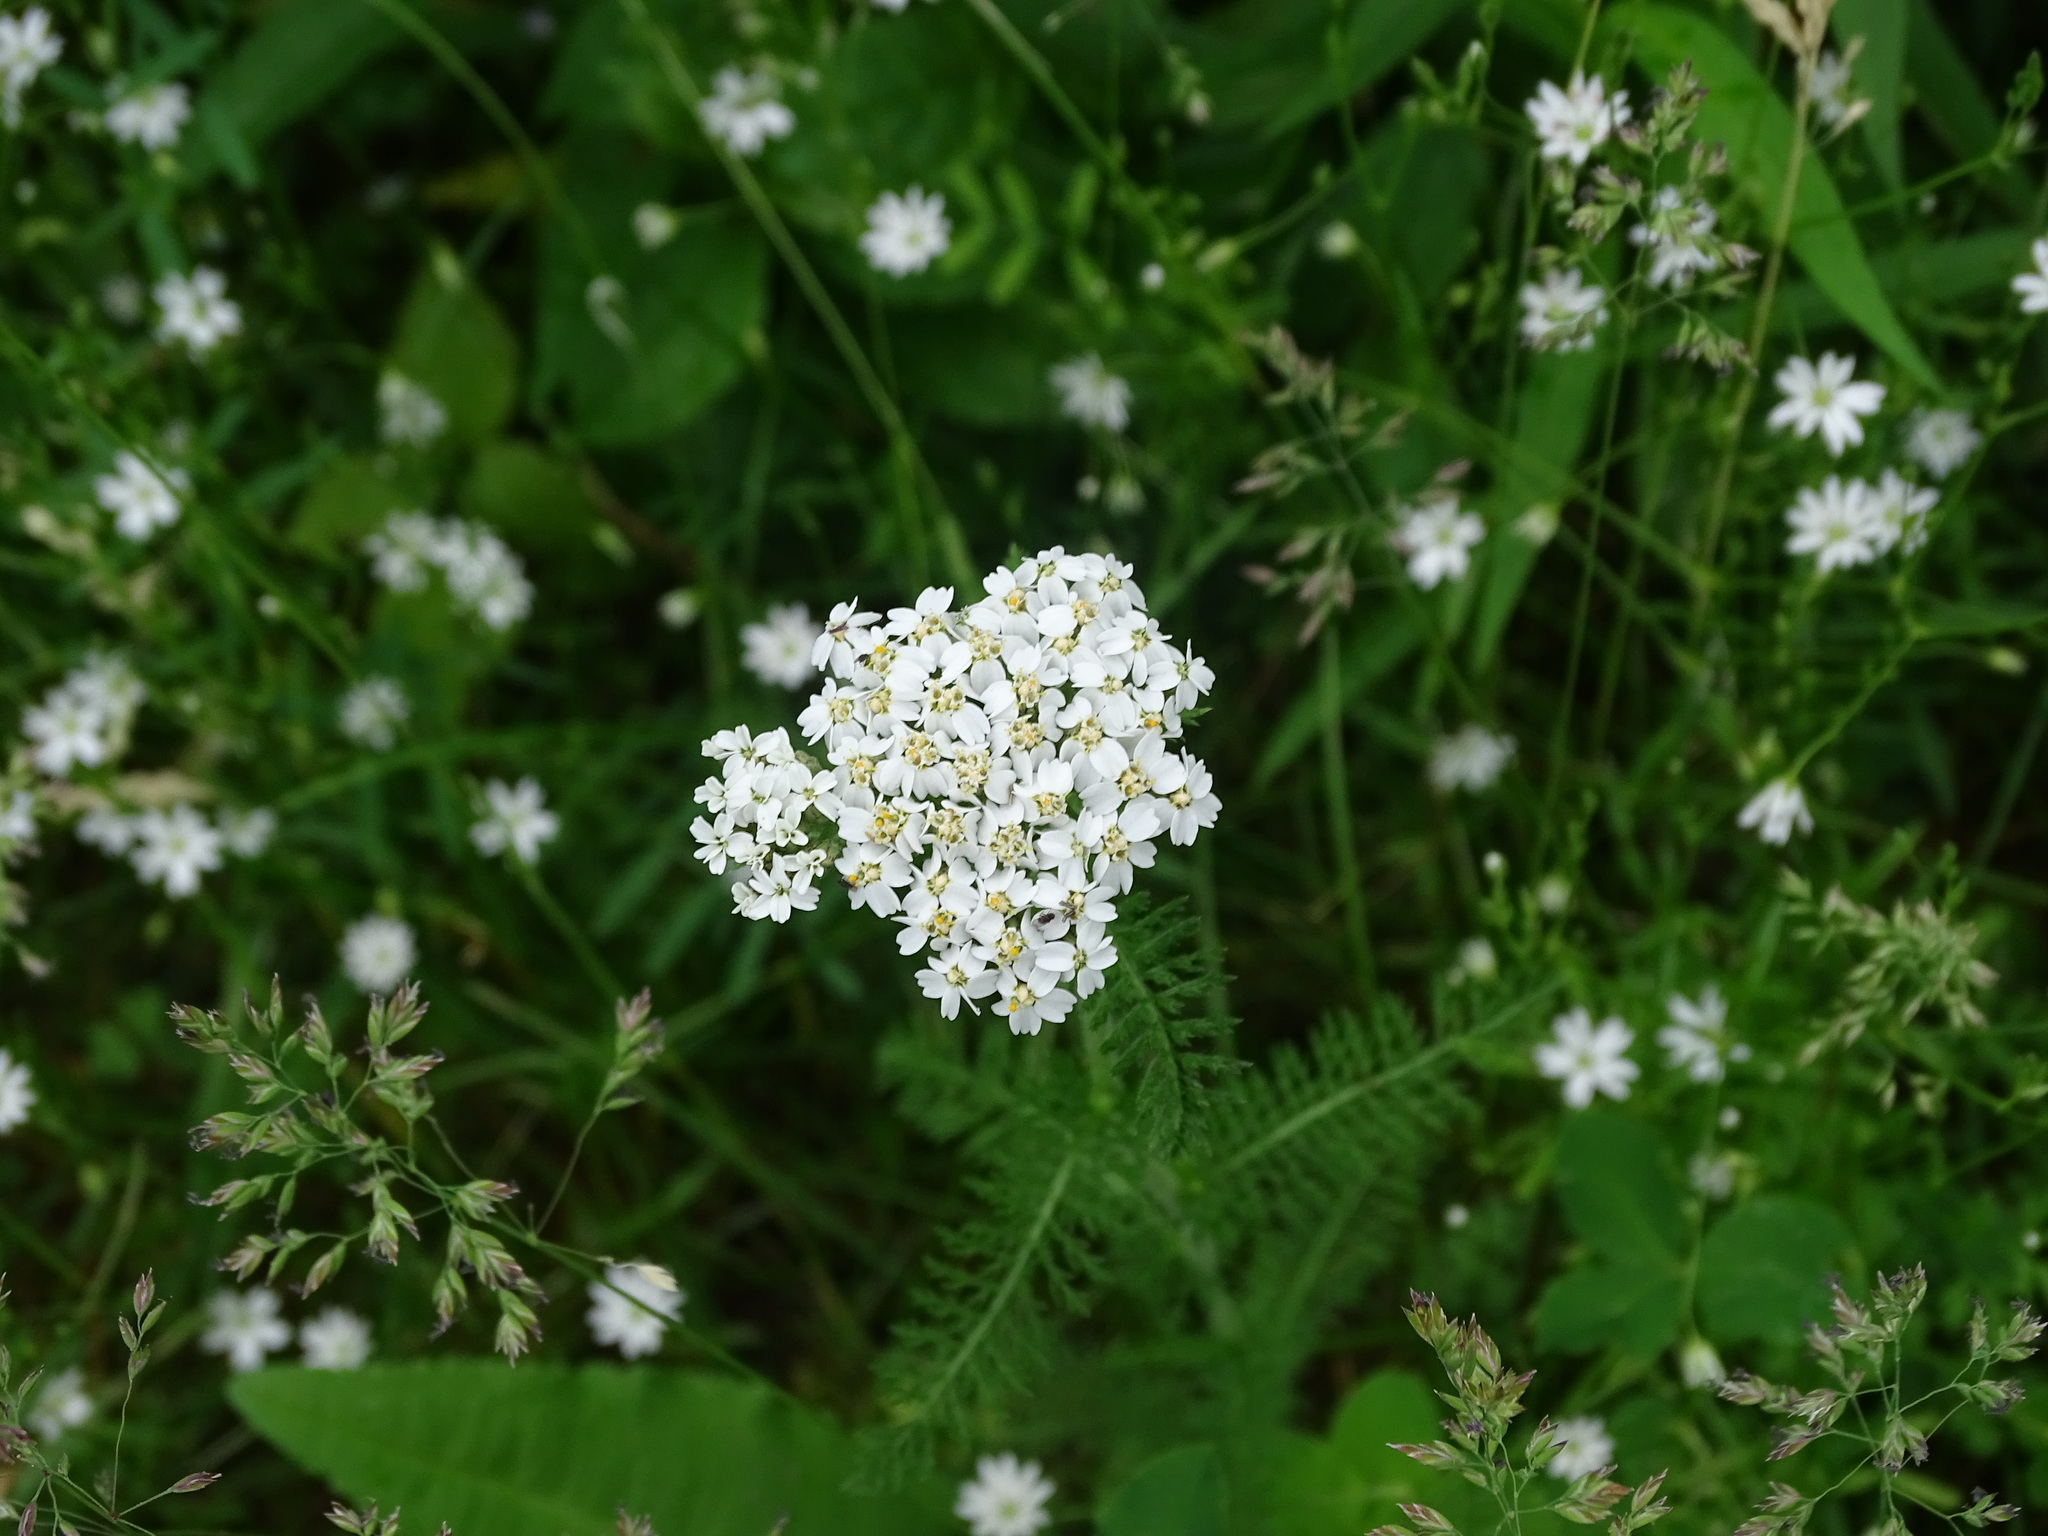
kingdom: Plantae
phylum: Tracheophyta
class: Magnoliopsida
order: Asterales
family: Asteraceae
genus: Achillea
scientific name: Achillea millefolium
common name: Yarrow
